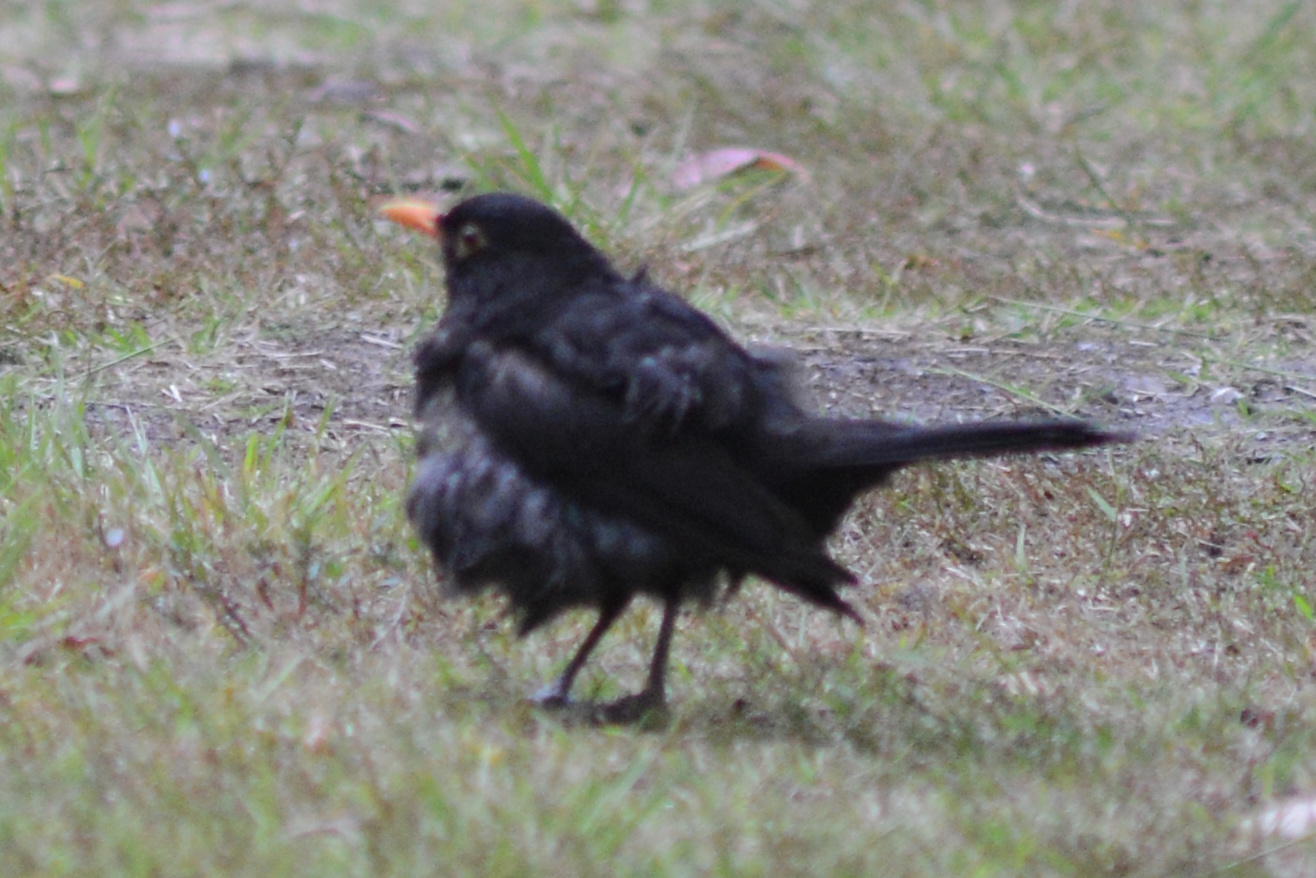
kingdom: Animalia
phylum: Chordata
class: Aves
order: Passeriformes
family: Turdidae
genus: Turdus
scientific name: Turdus merula
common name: Common blackbird
